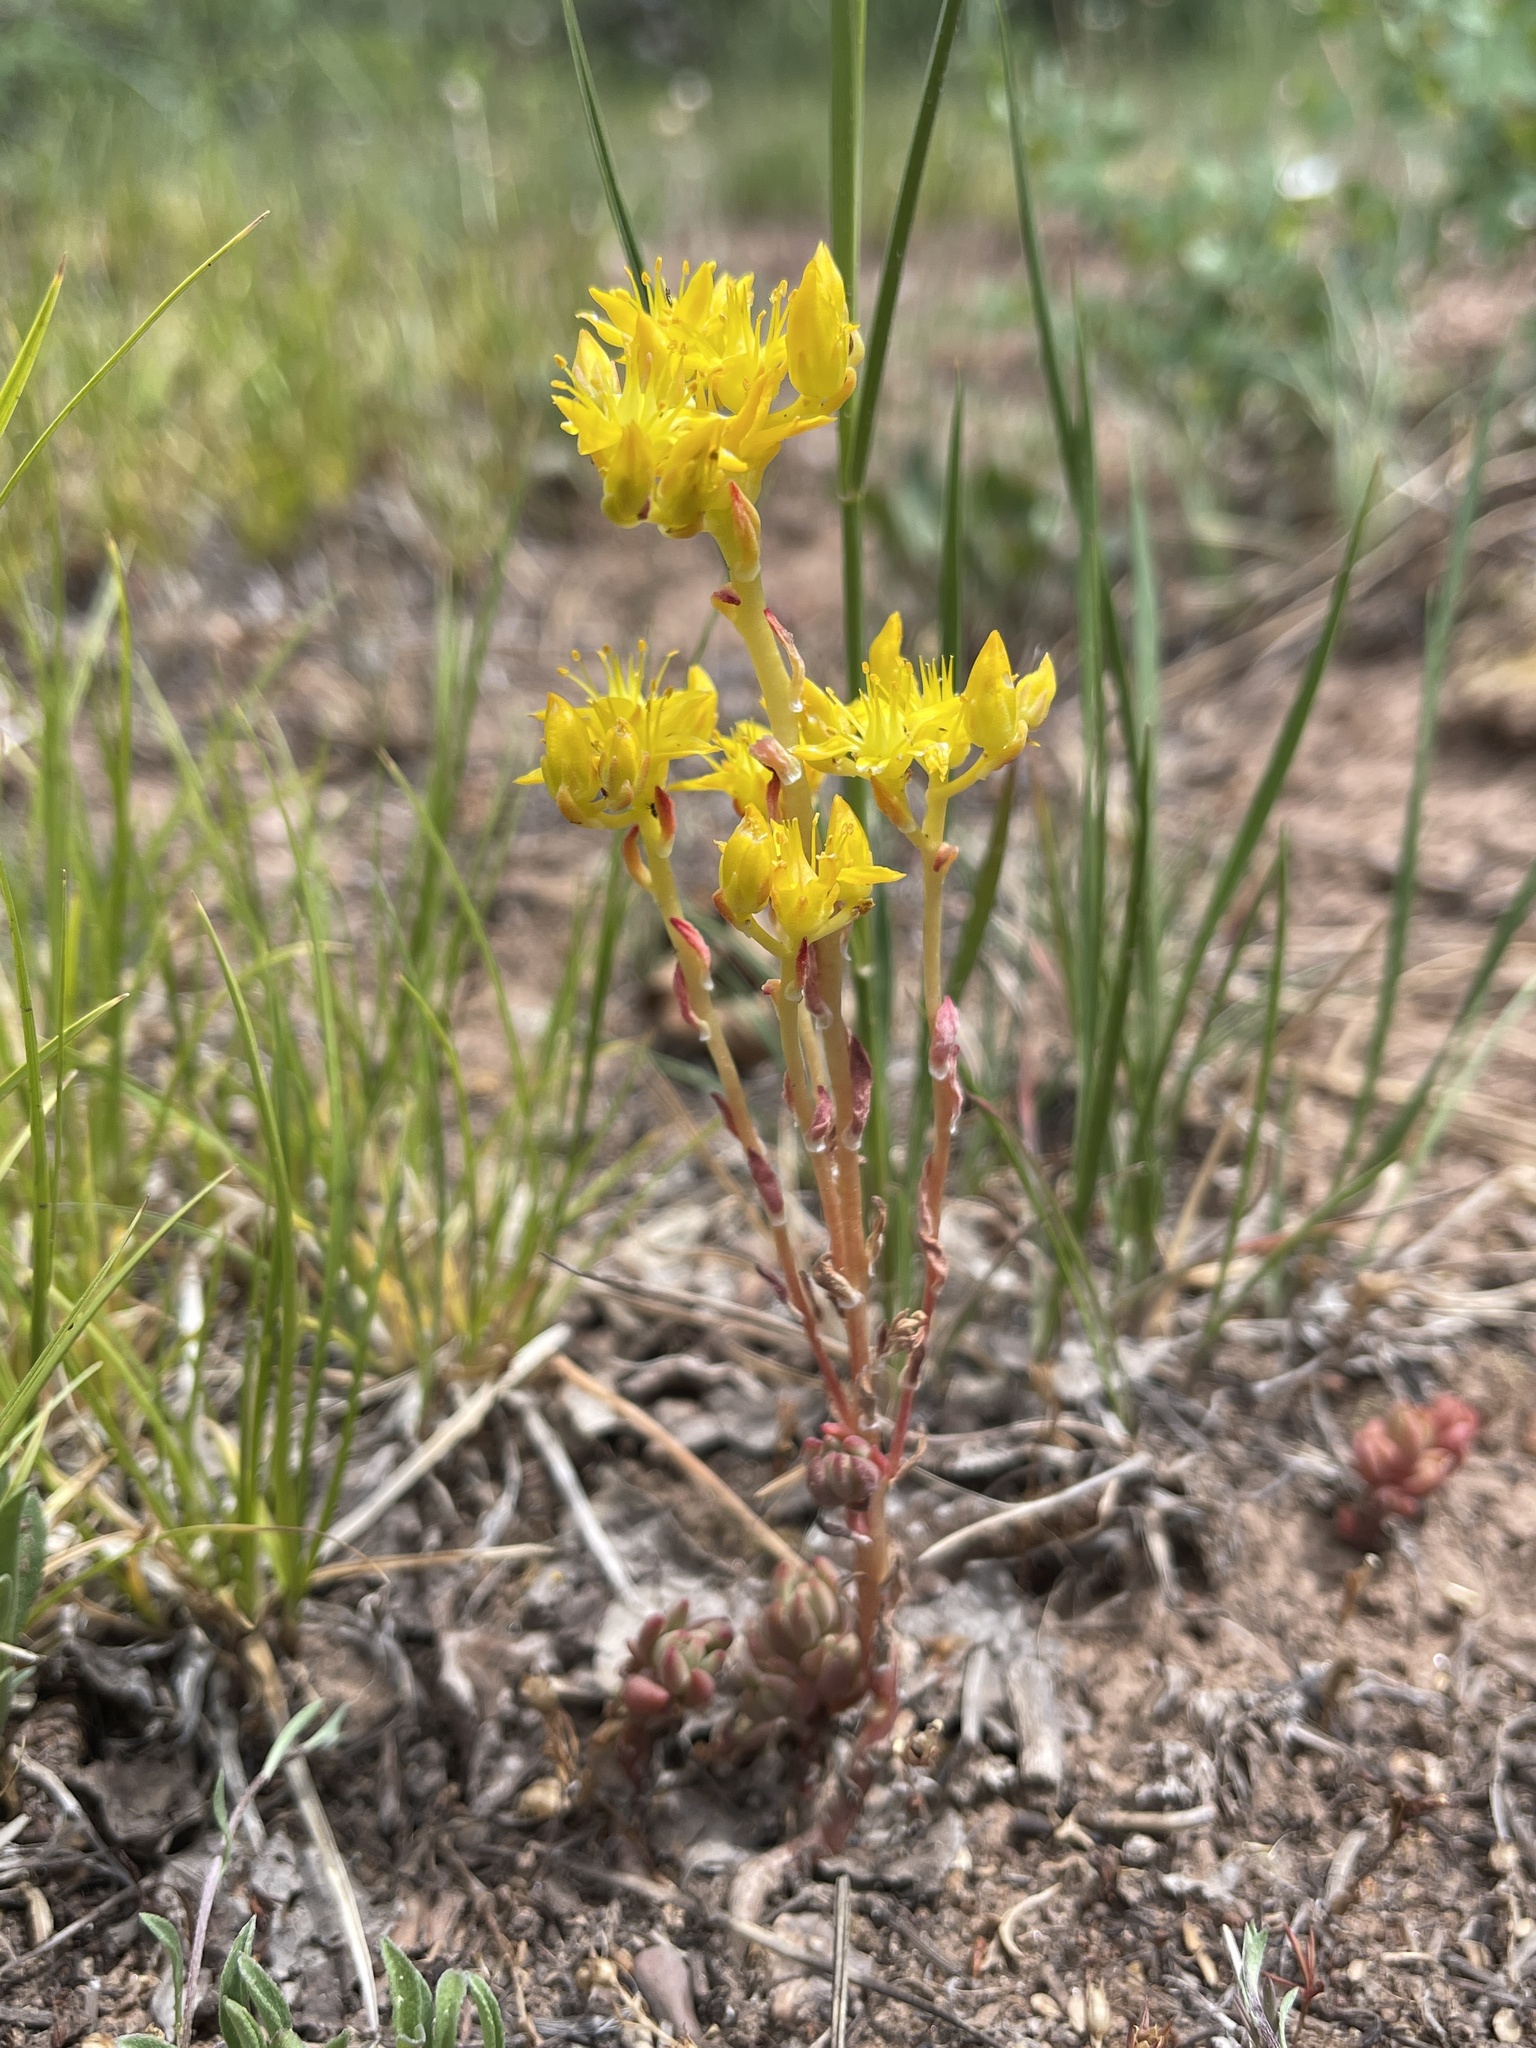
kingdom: Plantae
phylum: Tracheophyta
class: Magnoliopsida
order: Saxifragales
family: Crassulaceae
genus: Sedum
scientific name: Sedum lanceolatum
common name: Common stonecrop
